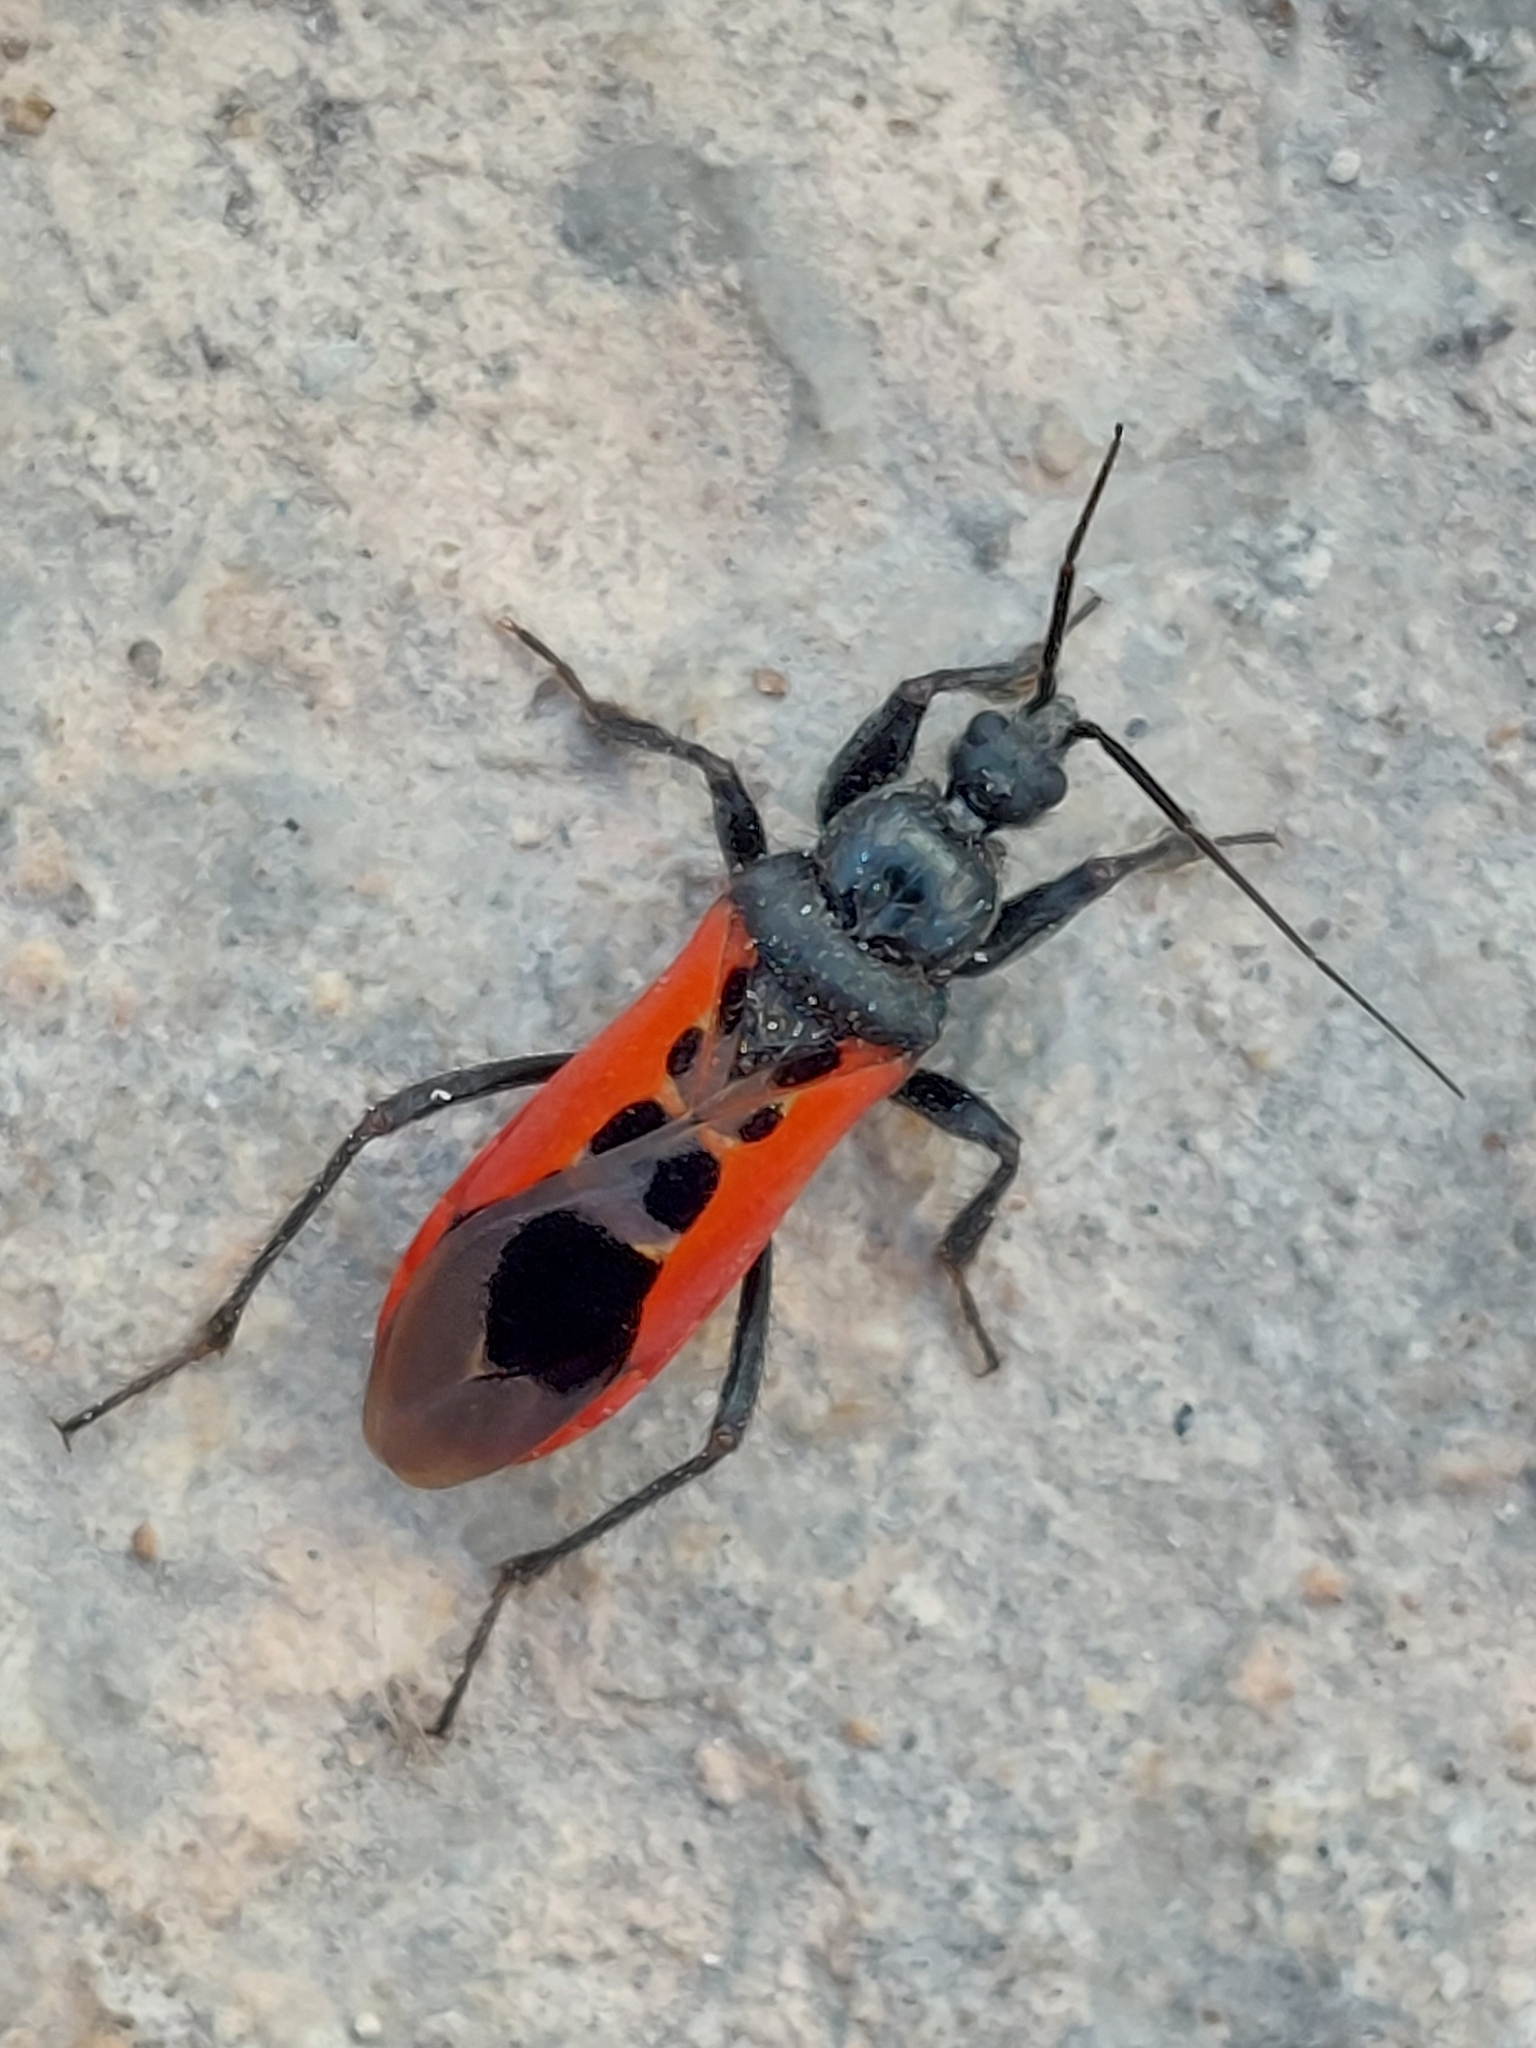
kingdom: Animalia
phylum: Arthropoda
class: Insecta
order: Hemiptera
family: Reduviidae
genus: Peirates
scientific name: Peirates stridulus
